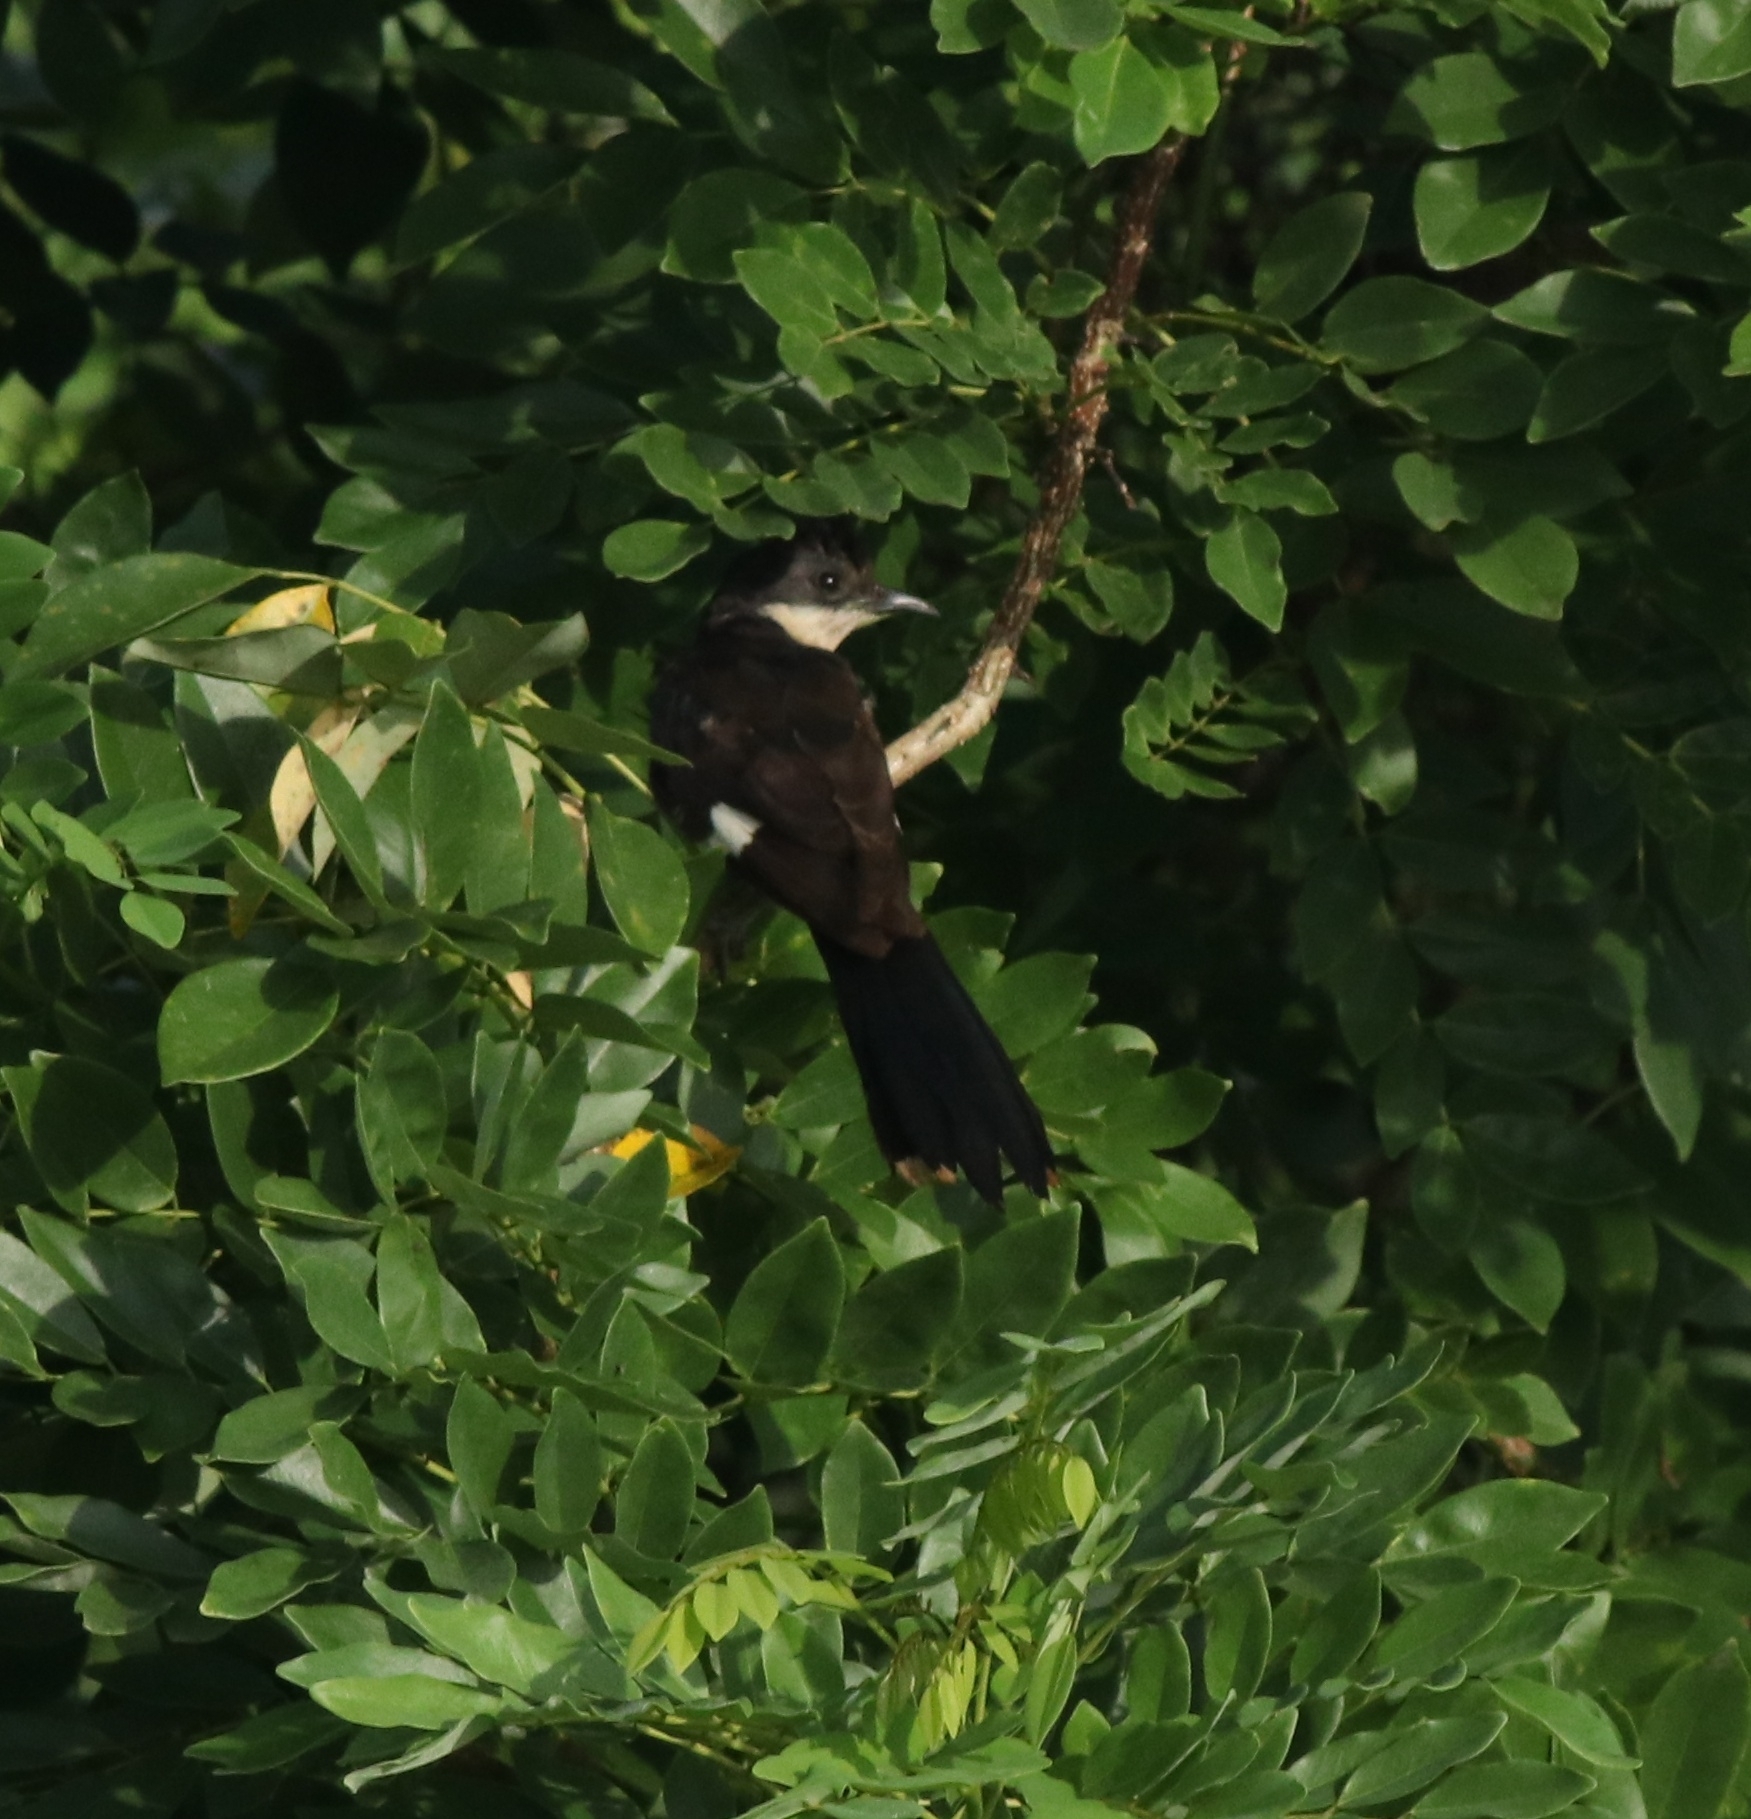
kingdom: Animalia
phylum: Chordata
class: Aves
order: Cuculiformes
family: Cuculidae
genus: Clamator
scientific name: Clamator jacobinus
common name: Jacobin cuckoo
